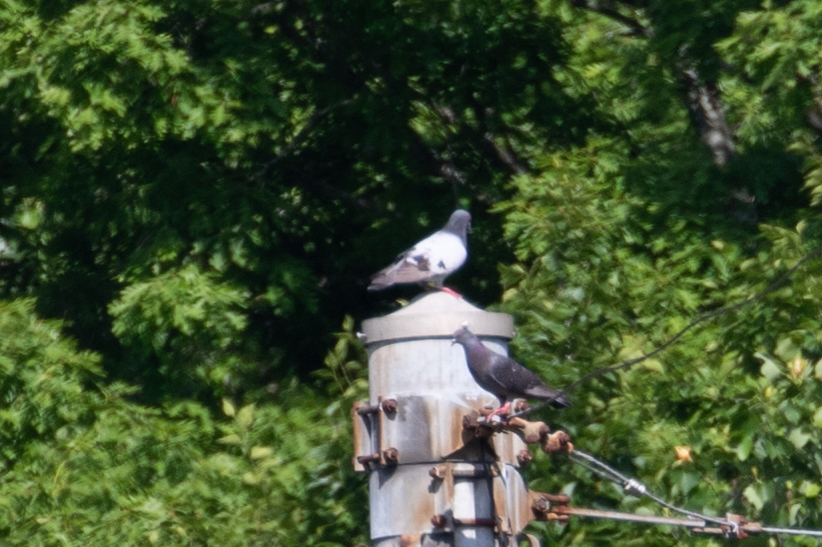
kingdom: Animalia
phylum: Chordata
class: Aves
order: Columbiformes
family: Columbidae
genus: Columba
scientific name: Columba livia
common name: Rock pigeon
